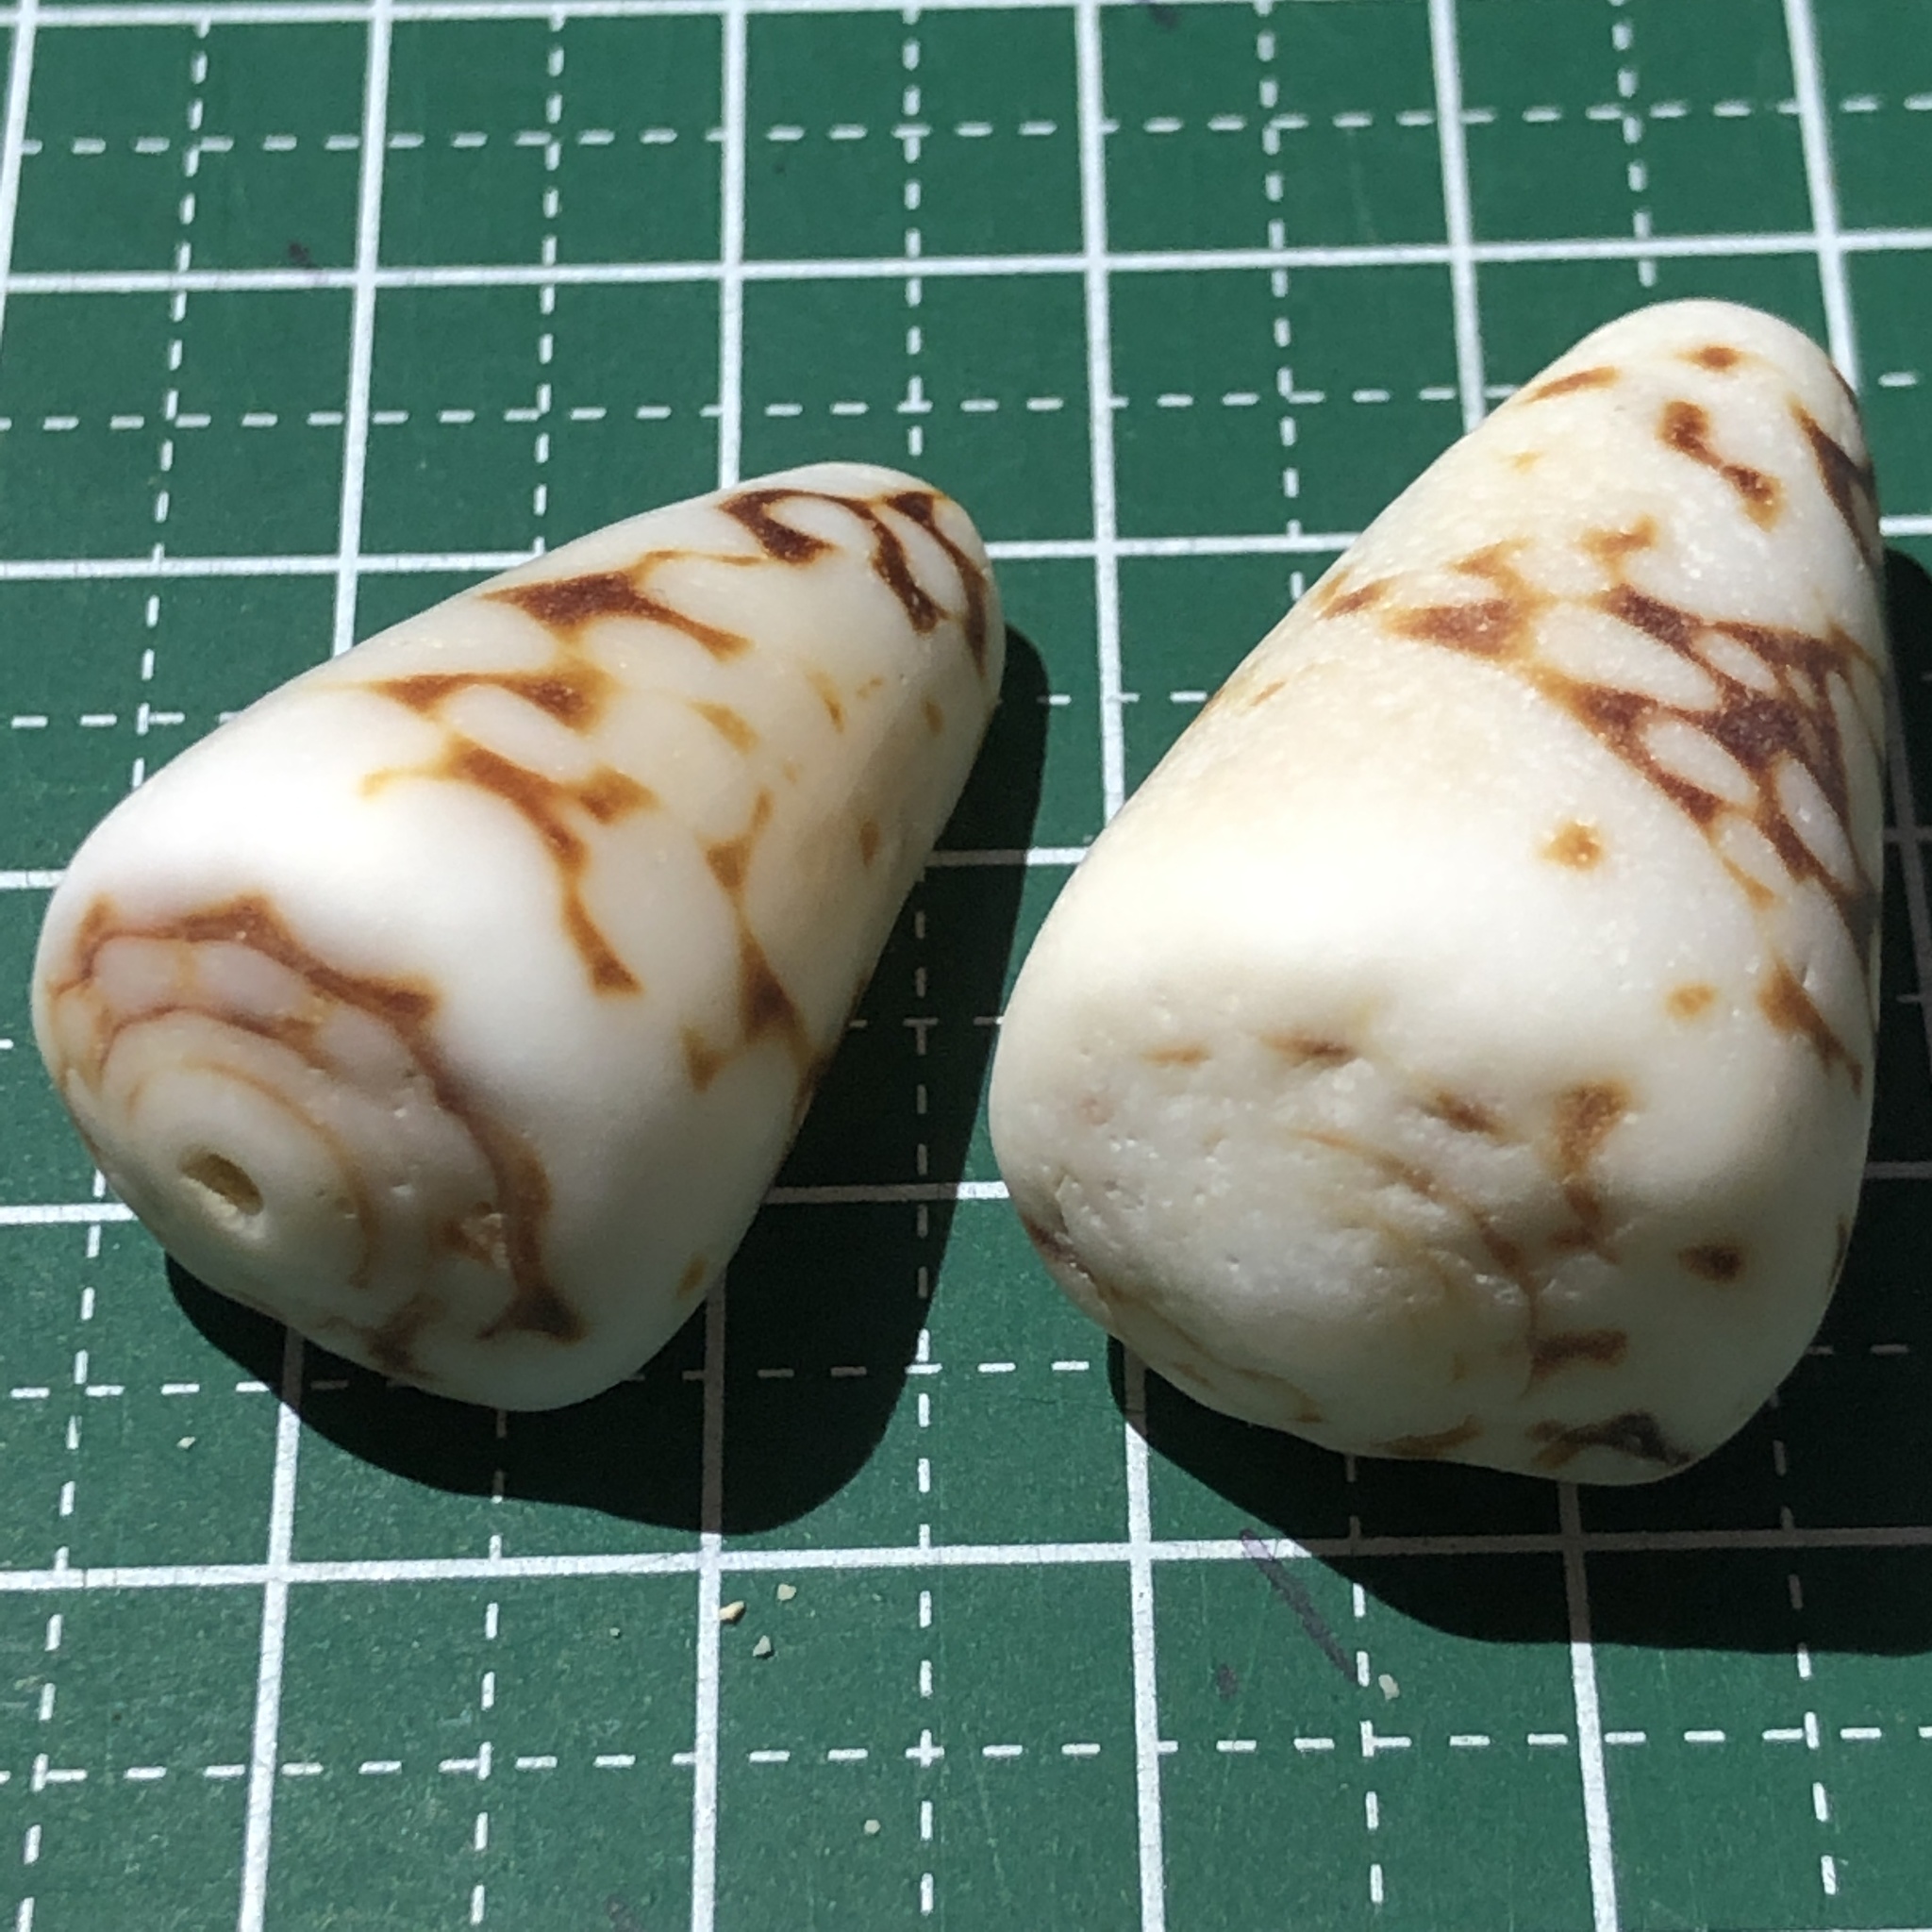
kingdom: Animalia
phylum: Mollusca
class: Gastropoda
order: Neogastropoda
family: Conidae
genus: Conus
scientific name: Conus bandanus
